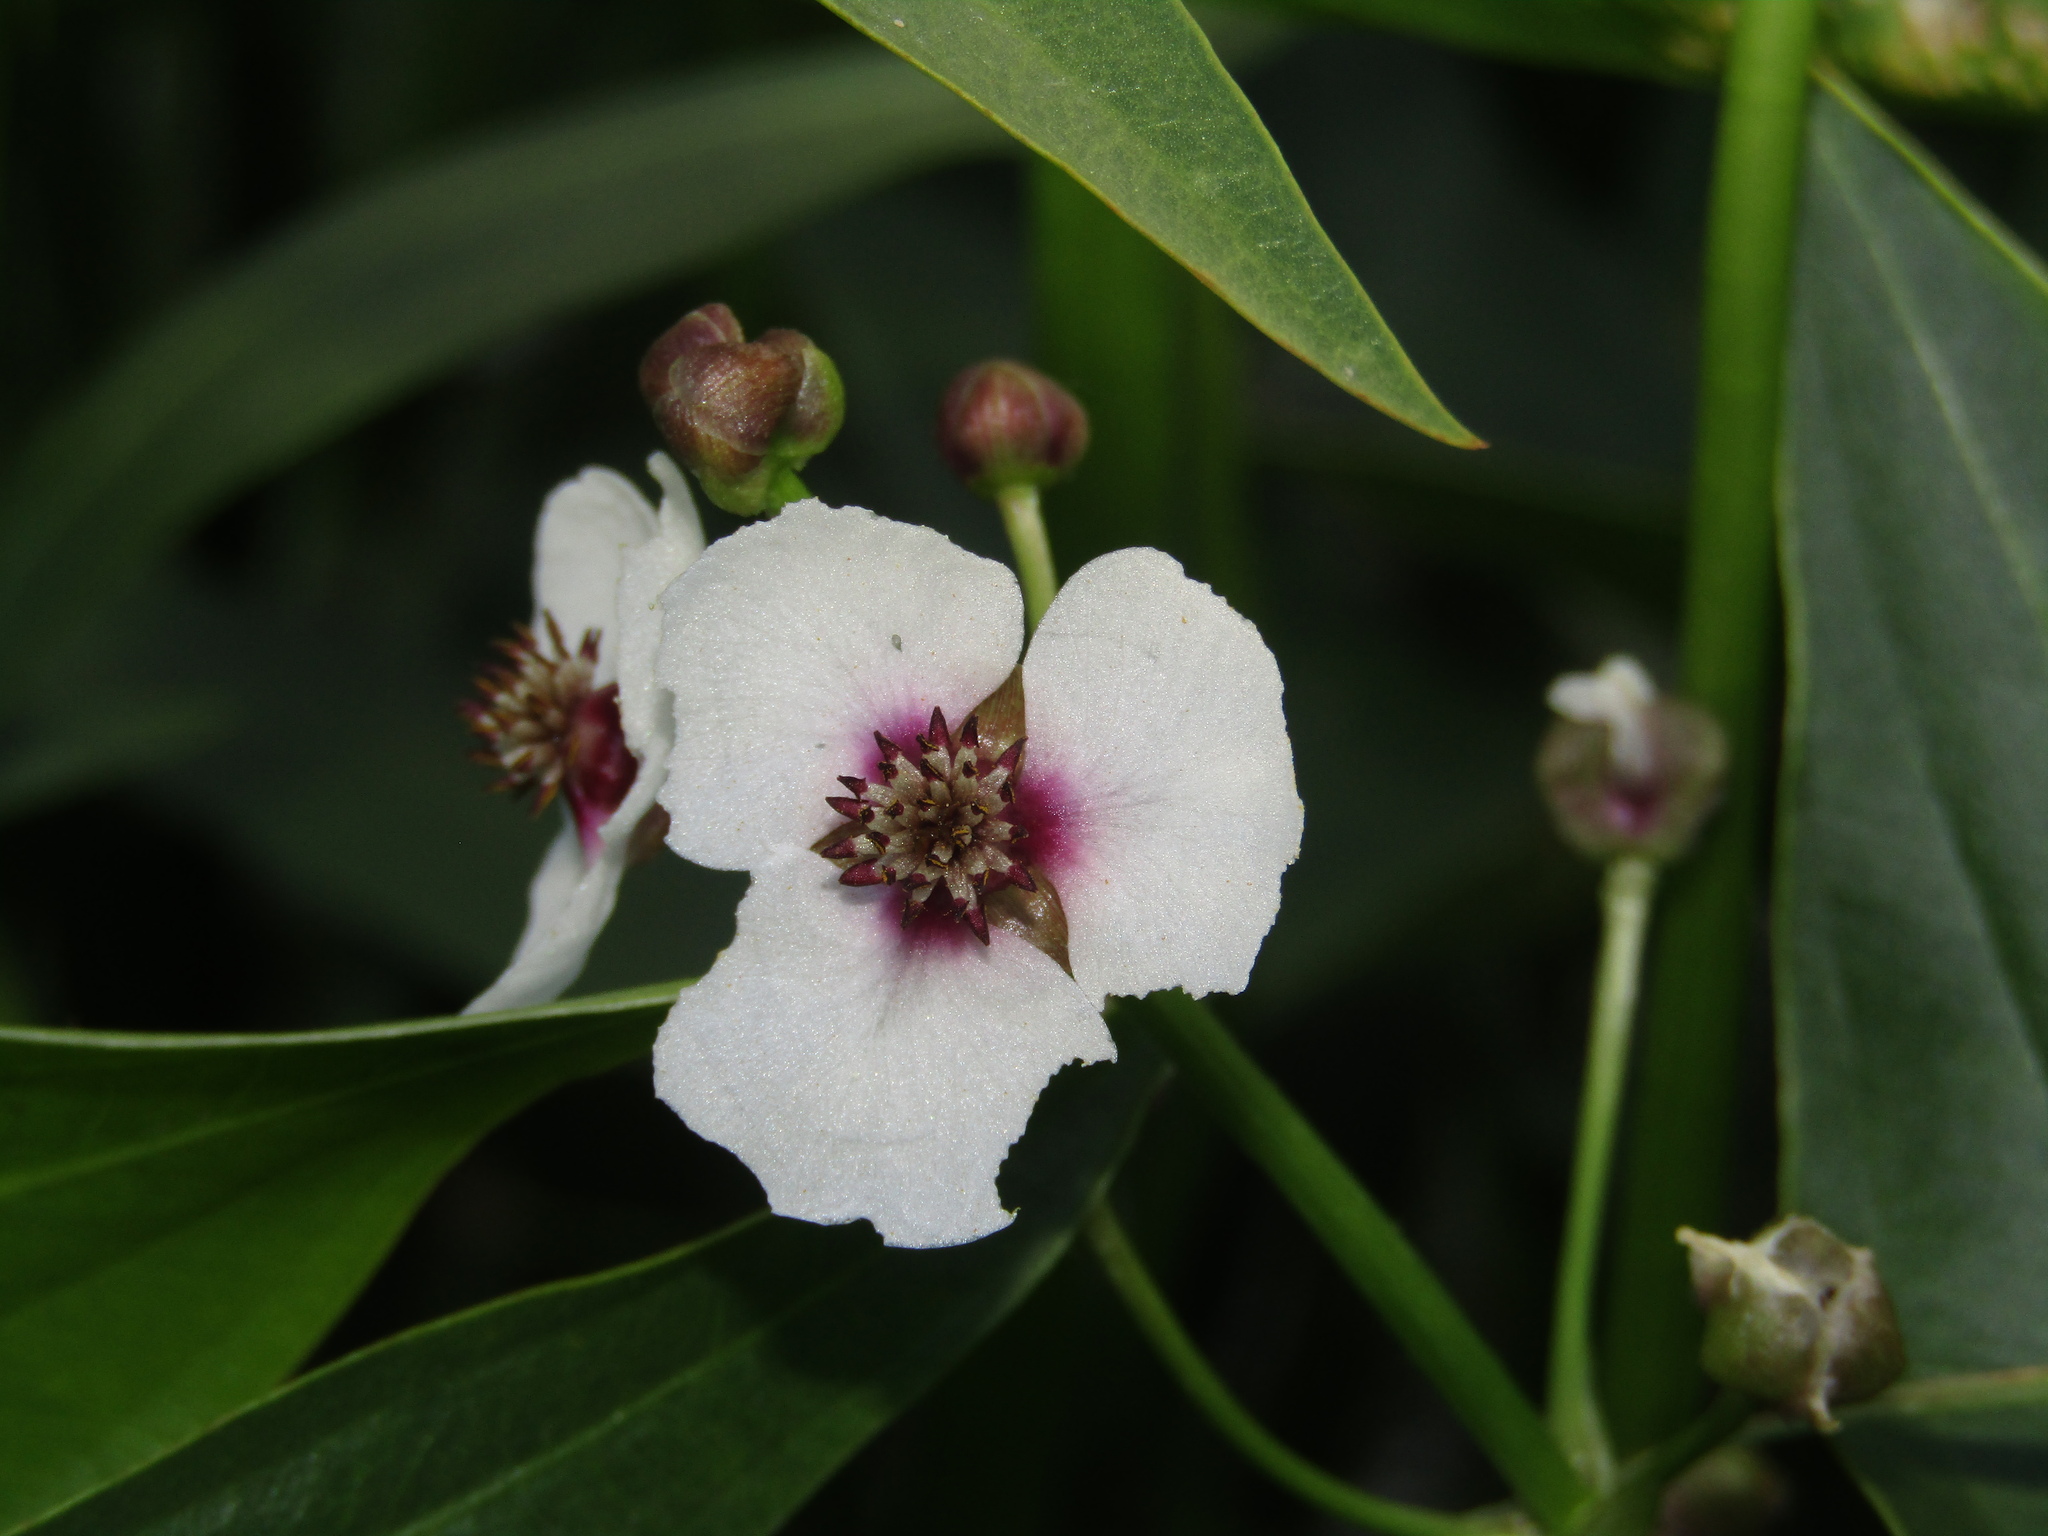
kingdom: Plantae
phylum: Tracheophyta
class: Liliopsida
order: Alismatales
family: Alismataceae
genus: Sagittaria
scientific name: Sagittaria sagittifolia
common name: Arrowhead
